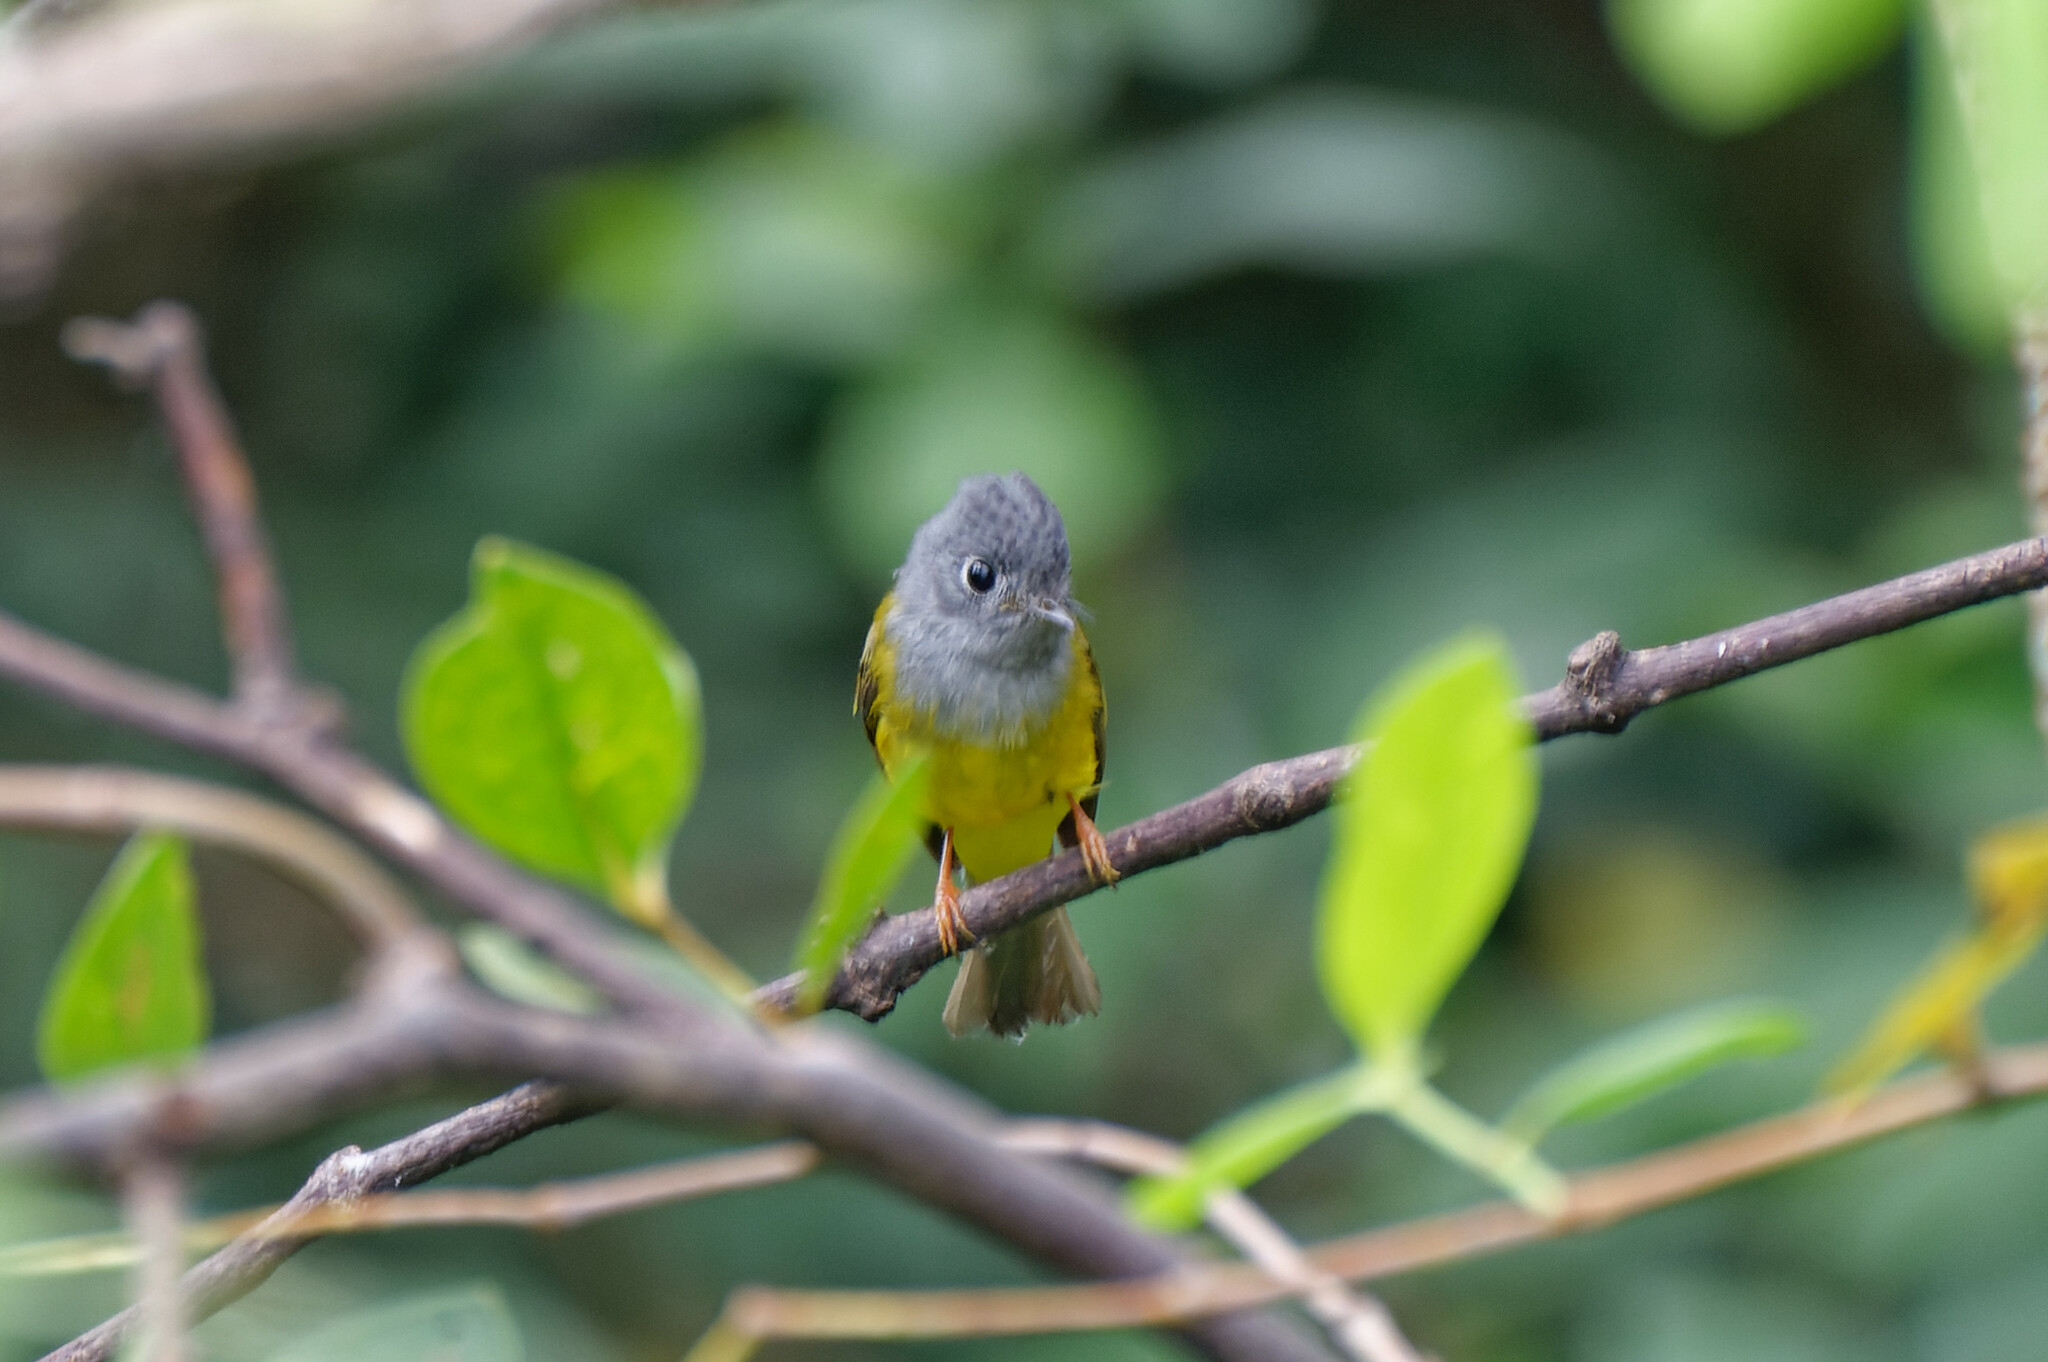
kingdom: Animalia
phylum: Chordata
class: Aves
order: Passeriformes
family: Stenostiridae
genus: Culicicapa
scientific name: Culicicapa ceylonensis
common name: Grey-headed canary-flycatcher
